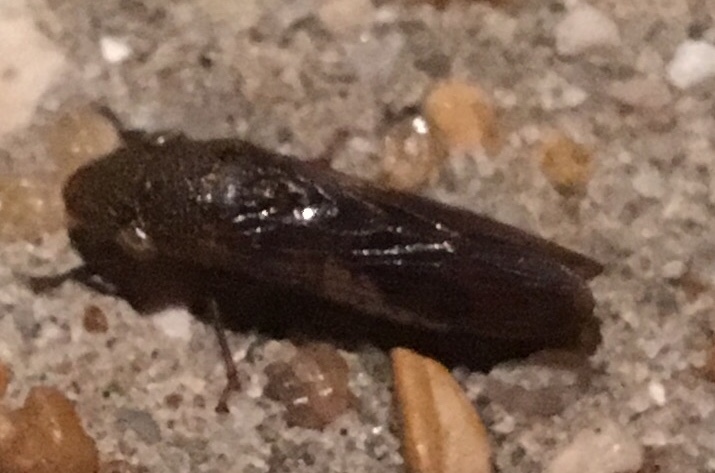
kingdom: Animalia
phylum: Arthropoda
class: Insecta
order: Hemiptera
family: Cicadellidae
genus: Homalodisca
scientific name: Homalodisca vitripennis
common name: Glassy-winged sharpshooter
